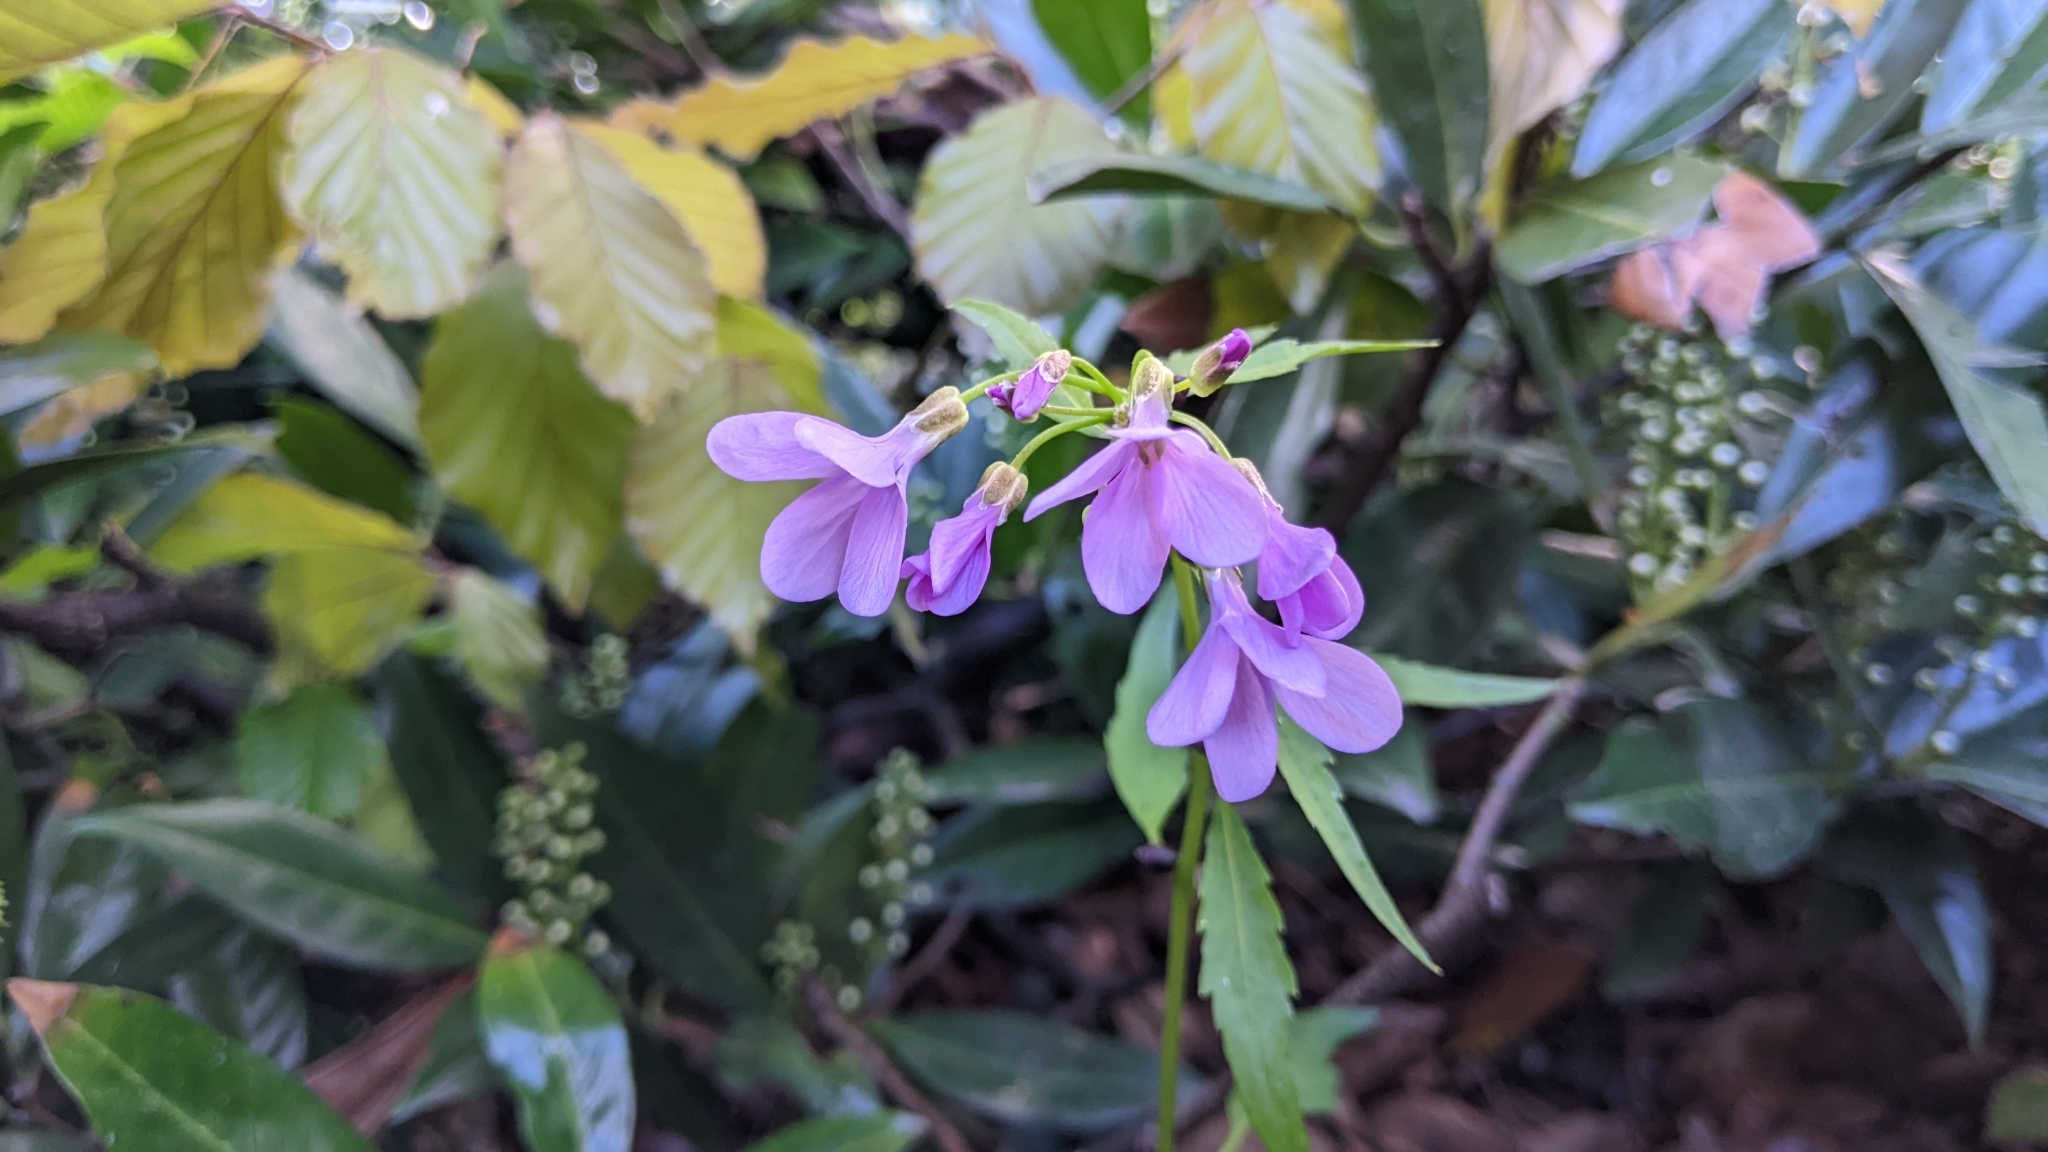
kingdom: Plantae
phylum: Tracheophyta
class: Magnoliopsida
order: Brassicales
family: Brassicaceae
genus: Cardamine
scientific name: Cardamine bulbifera
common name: Coralroot bittercress
